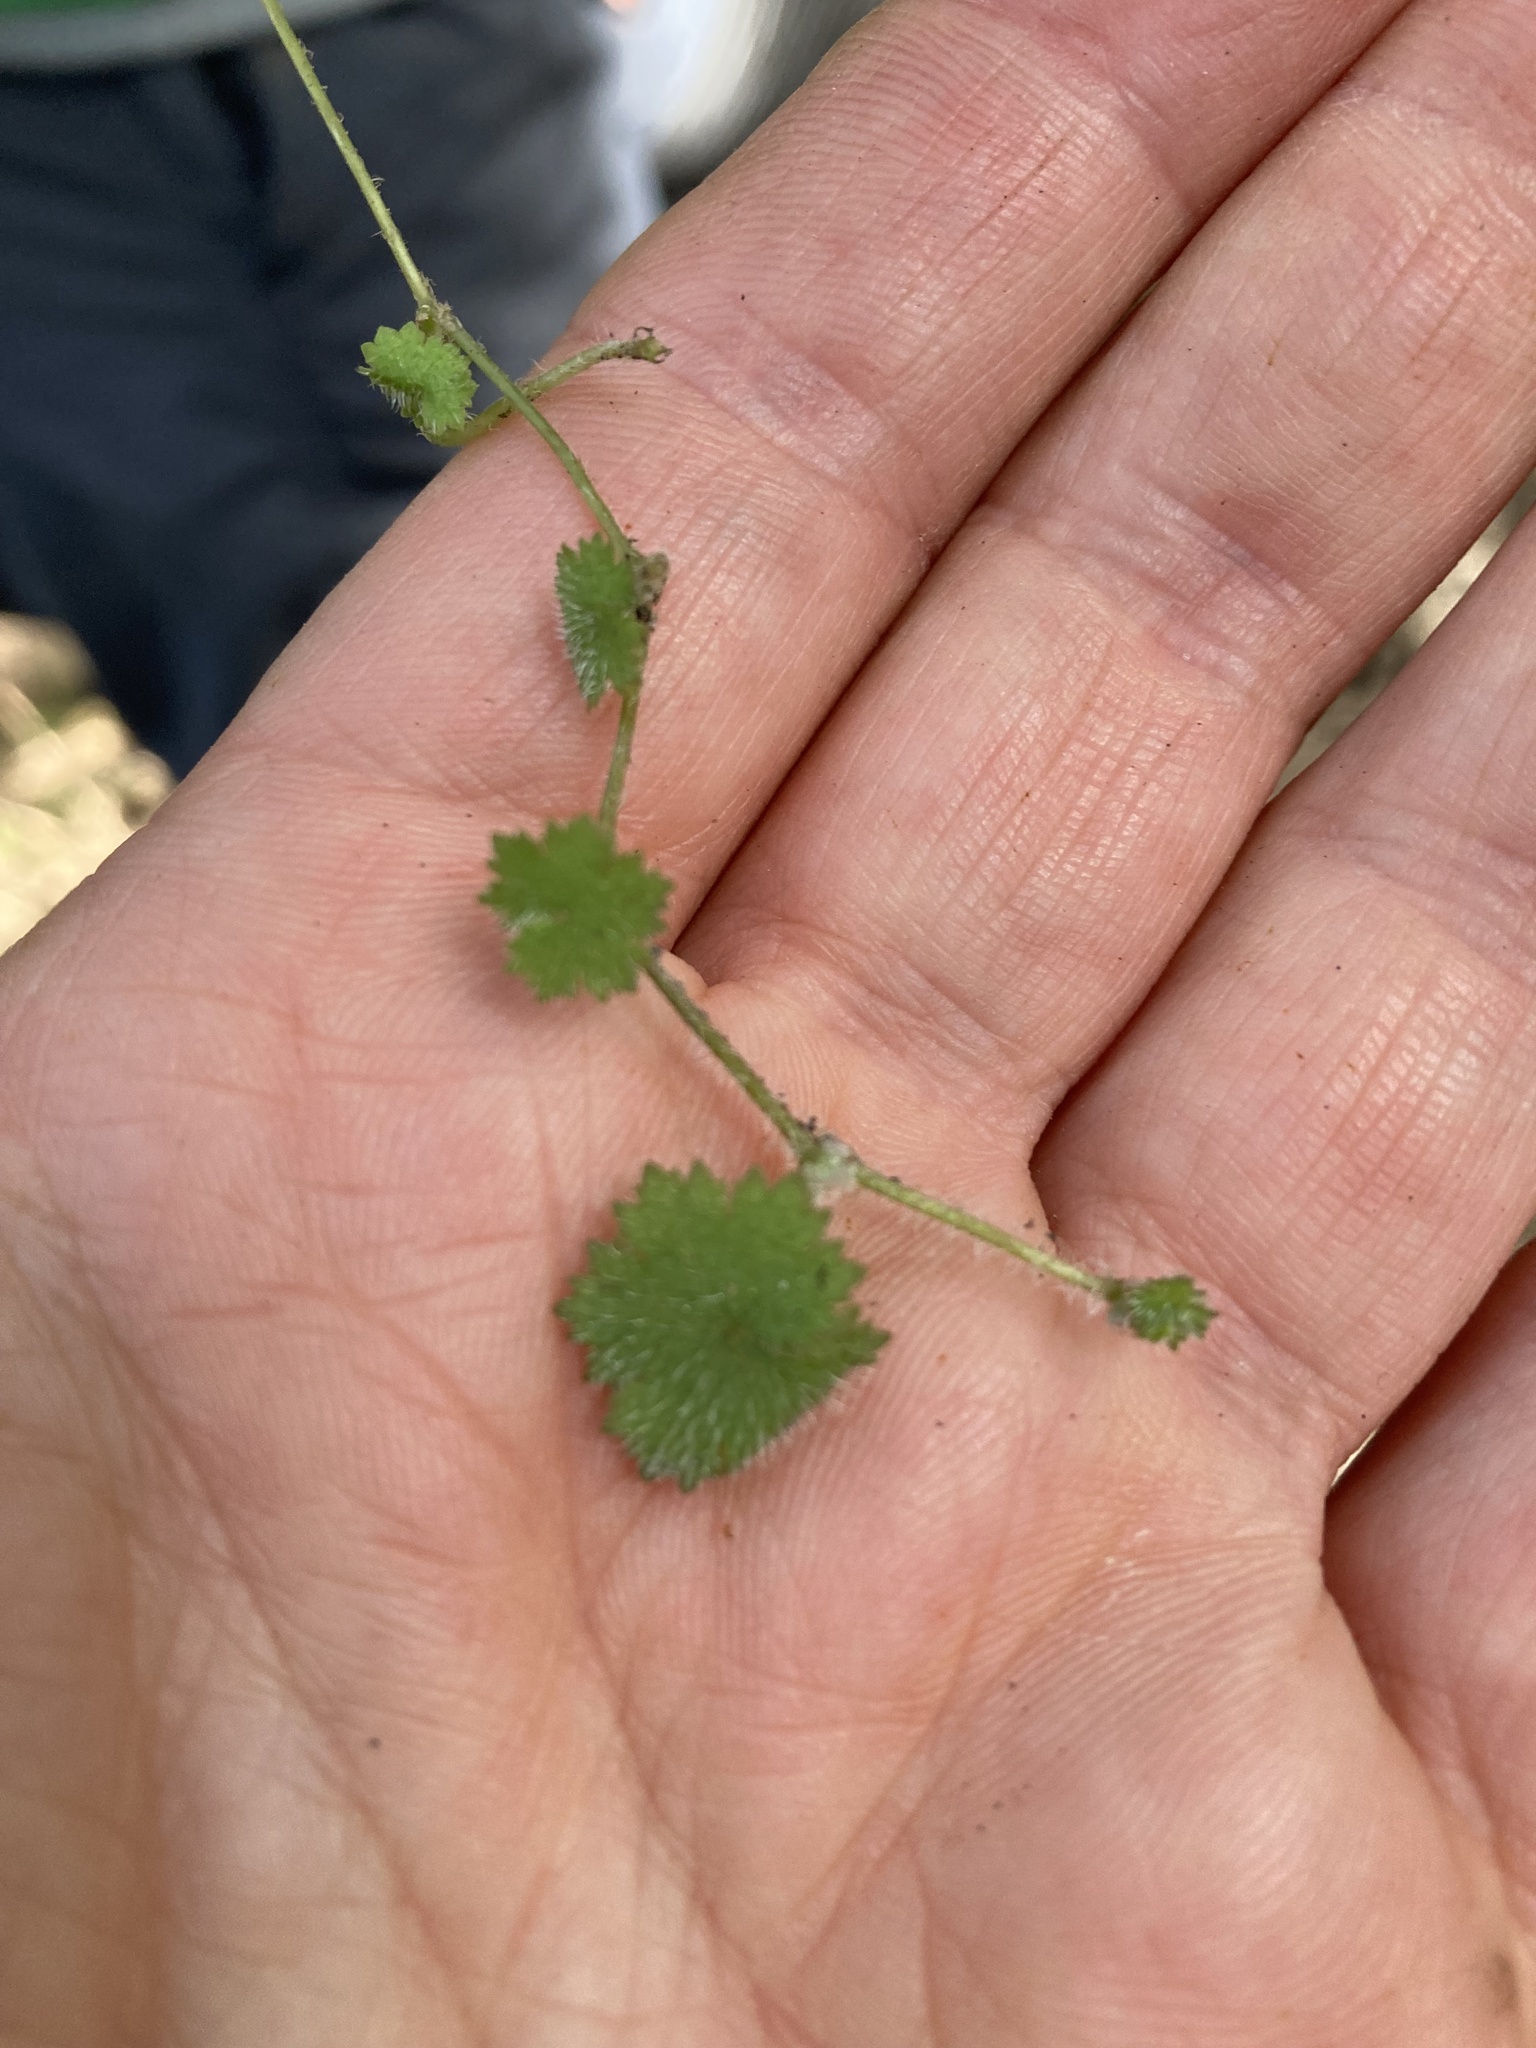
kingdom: Plantae
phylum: Tracheophyta
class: Magnoliopsida
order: Apiales
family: Araliaceae
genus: Hydrocotyle
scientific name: Hydrocotyle moschata
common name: Hairy pennywort
